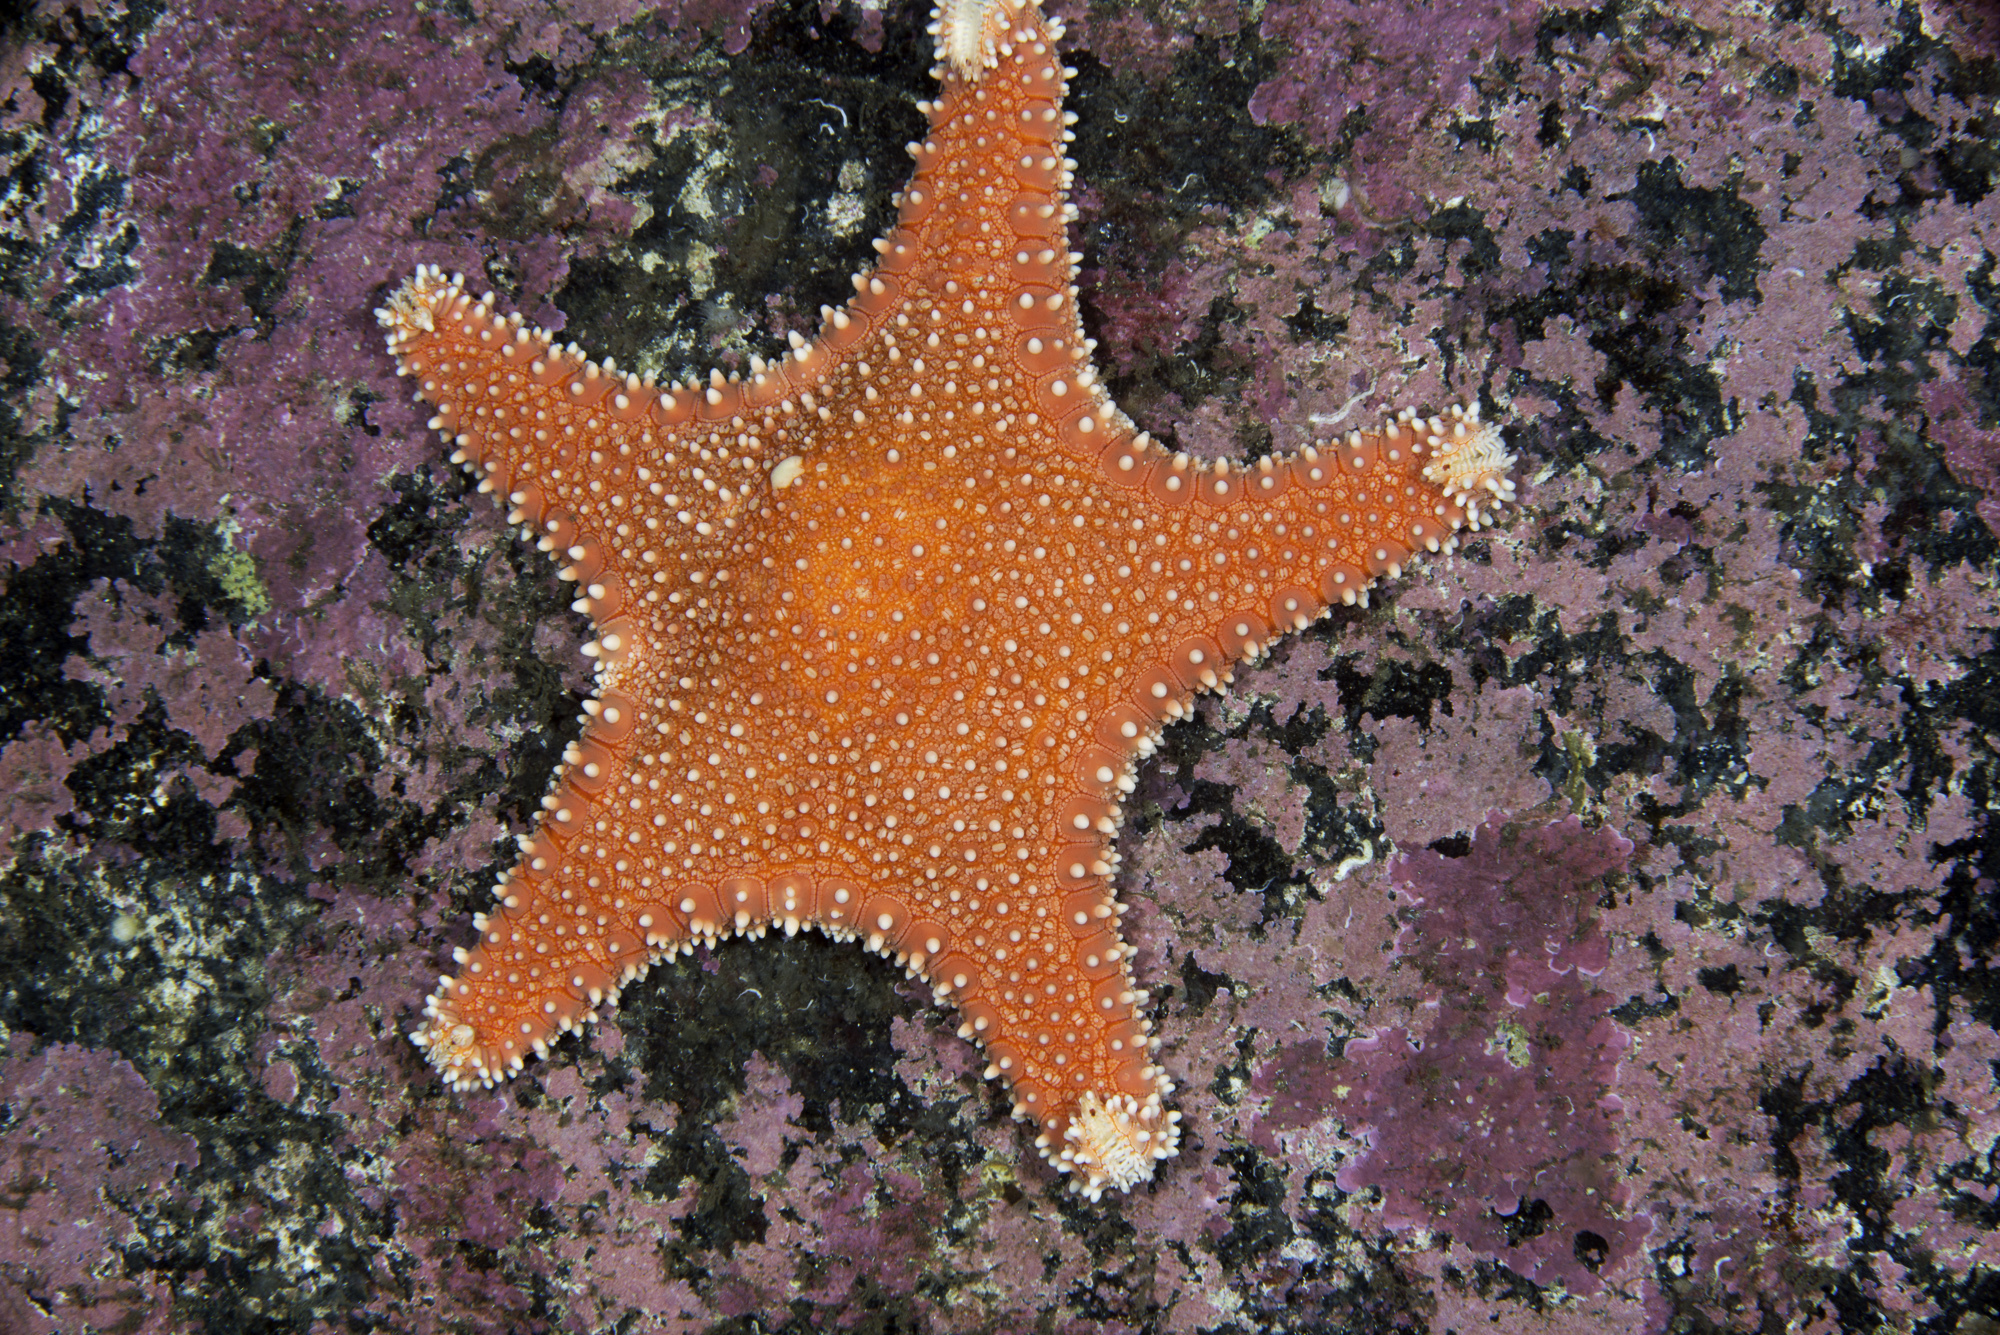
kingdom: Animalia
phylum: Echinodermata
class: Asteroidea
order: Valvatida
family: Goniasteridae
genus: Hippasteria
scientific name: Hippasteria phrygiana
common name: Arctic cushion star
